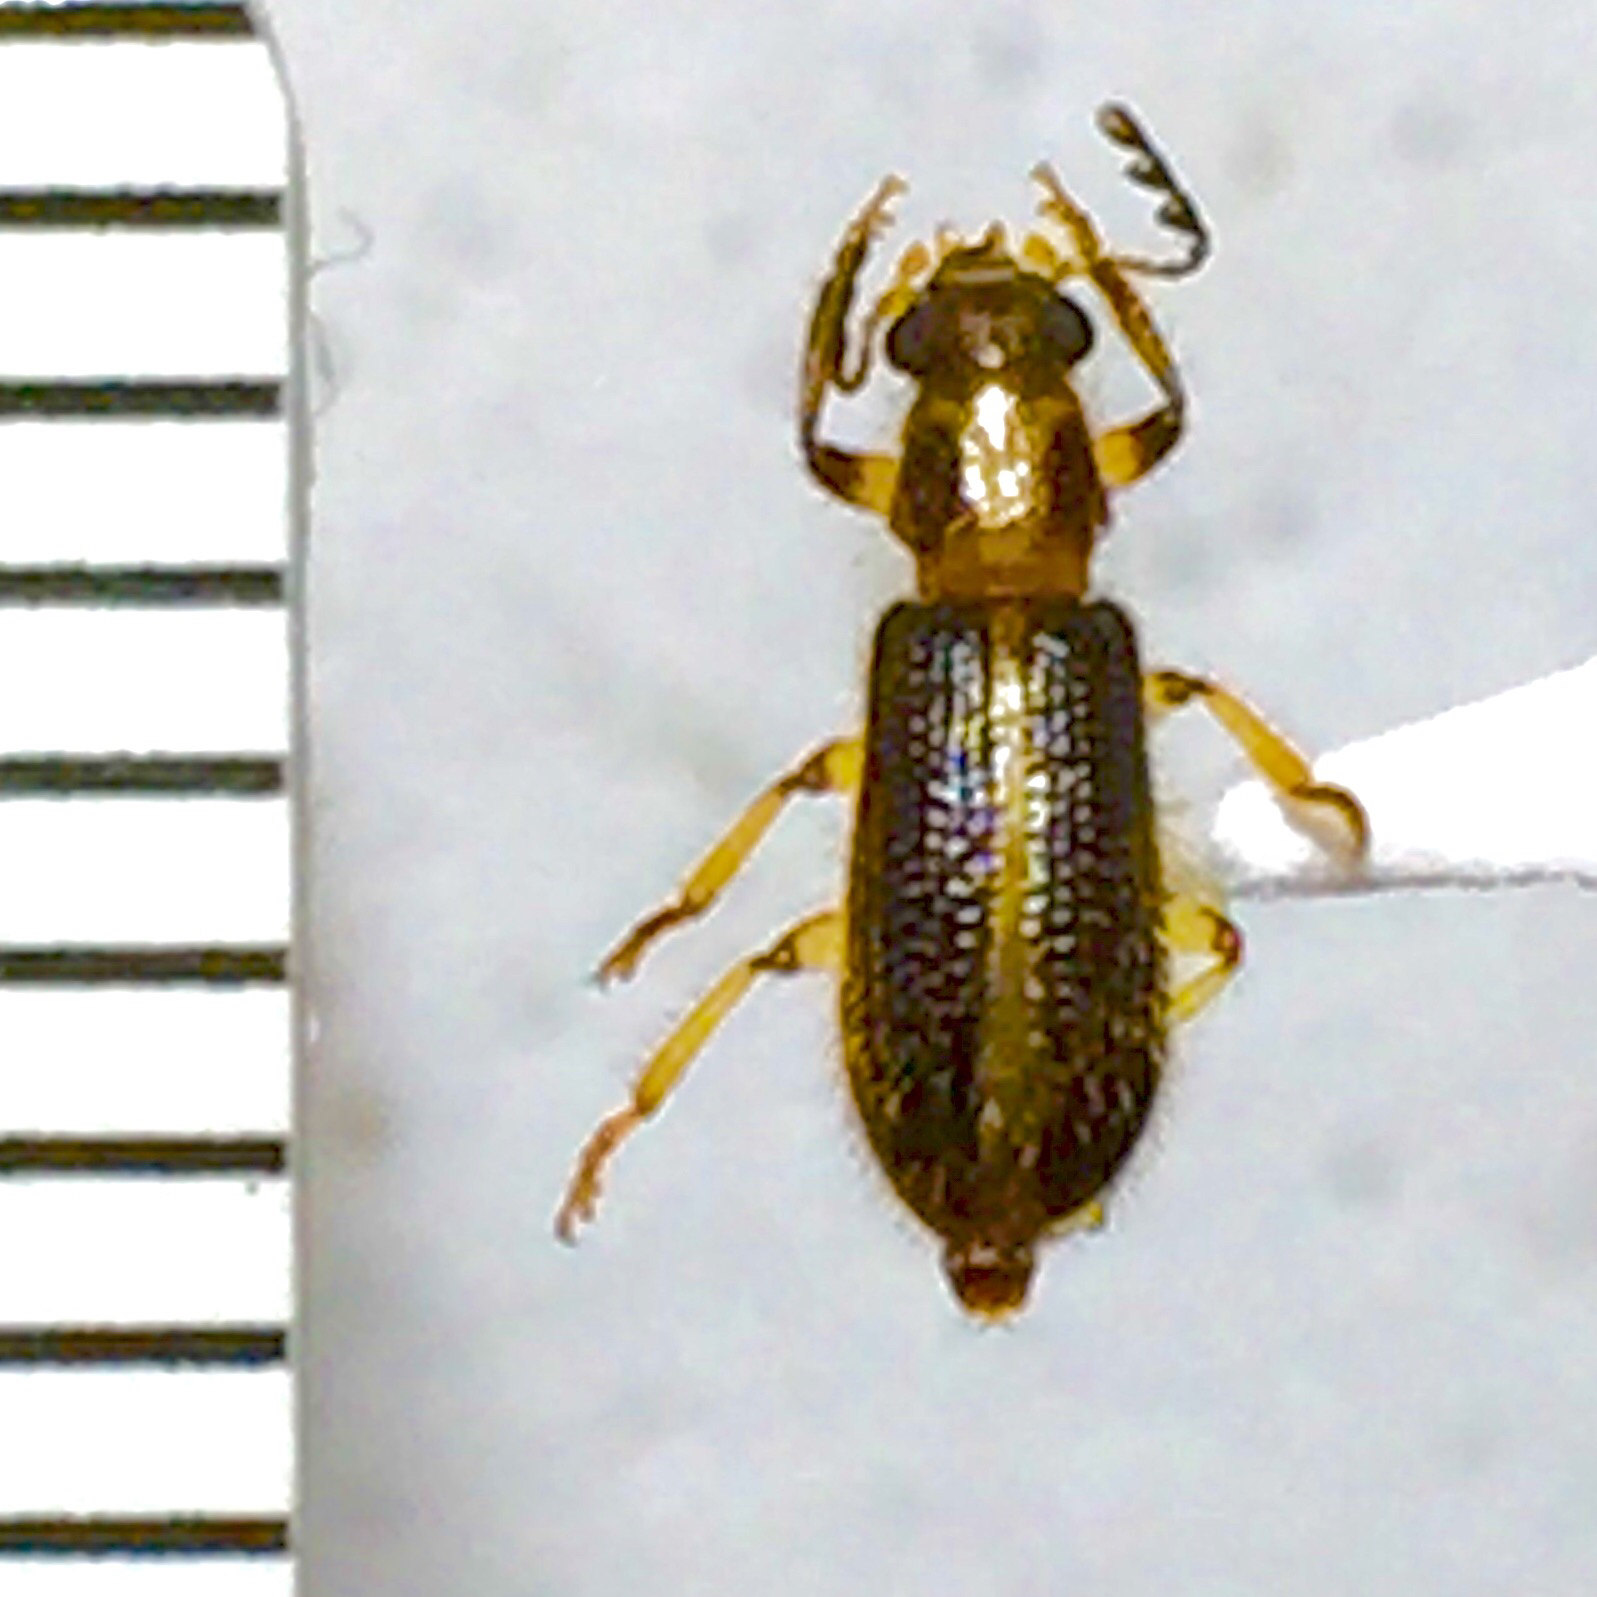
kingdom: Animalia
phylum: Arthropoda
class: Insecta
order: Coleoptera
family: Cleridae
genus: Cregya
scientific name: Cregya oculata
